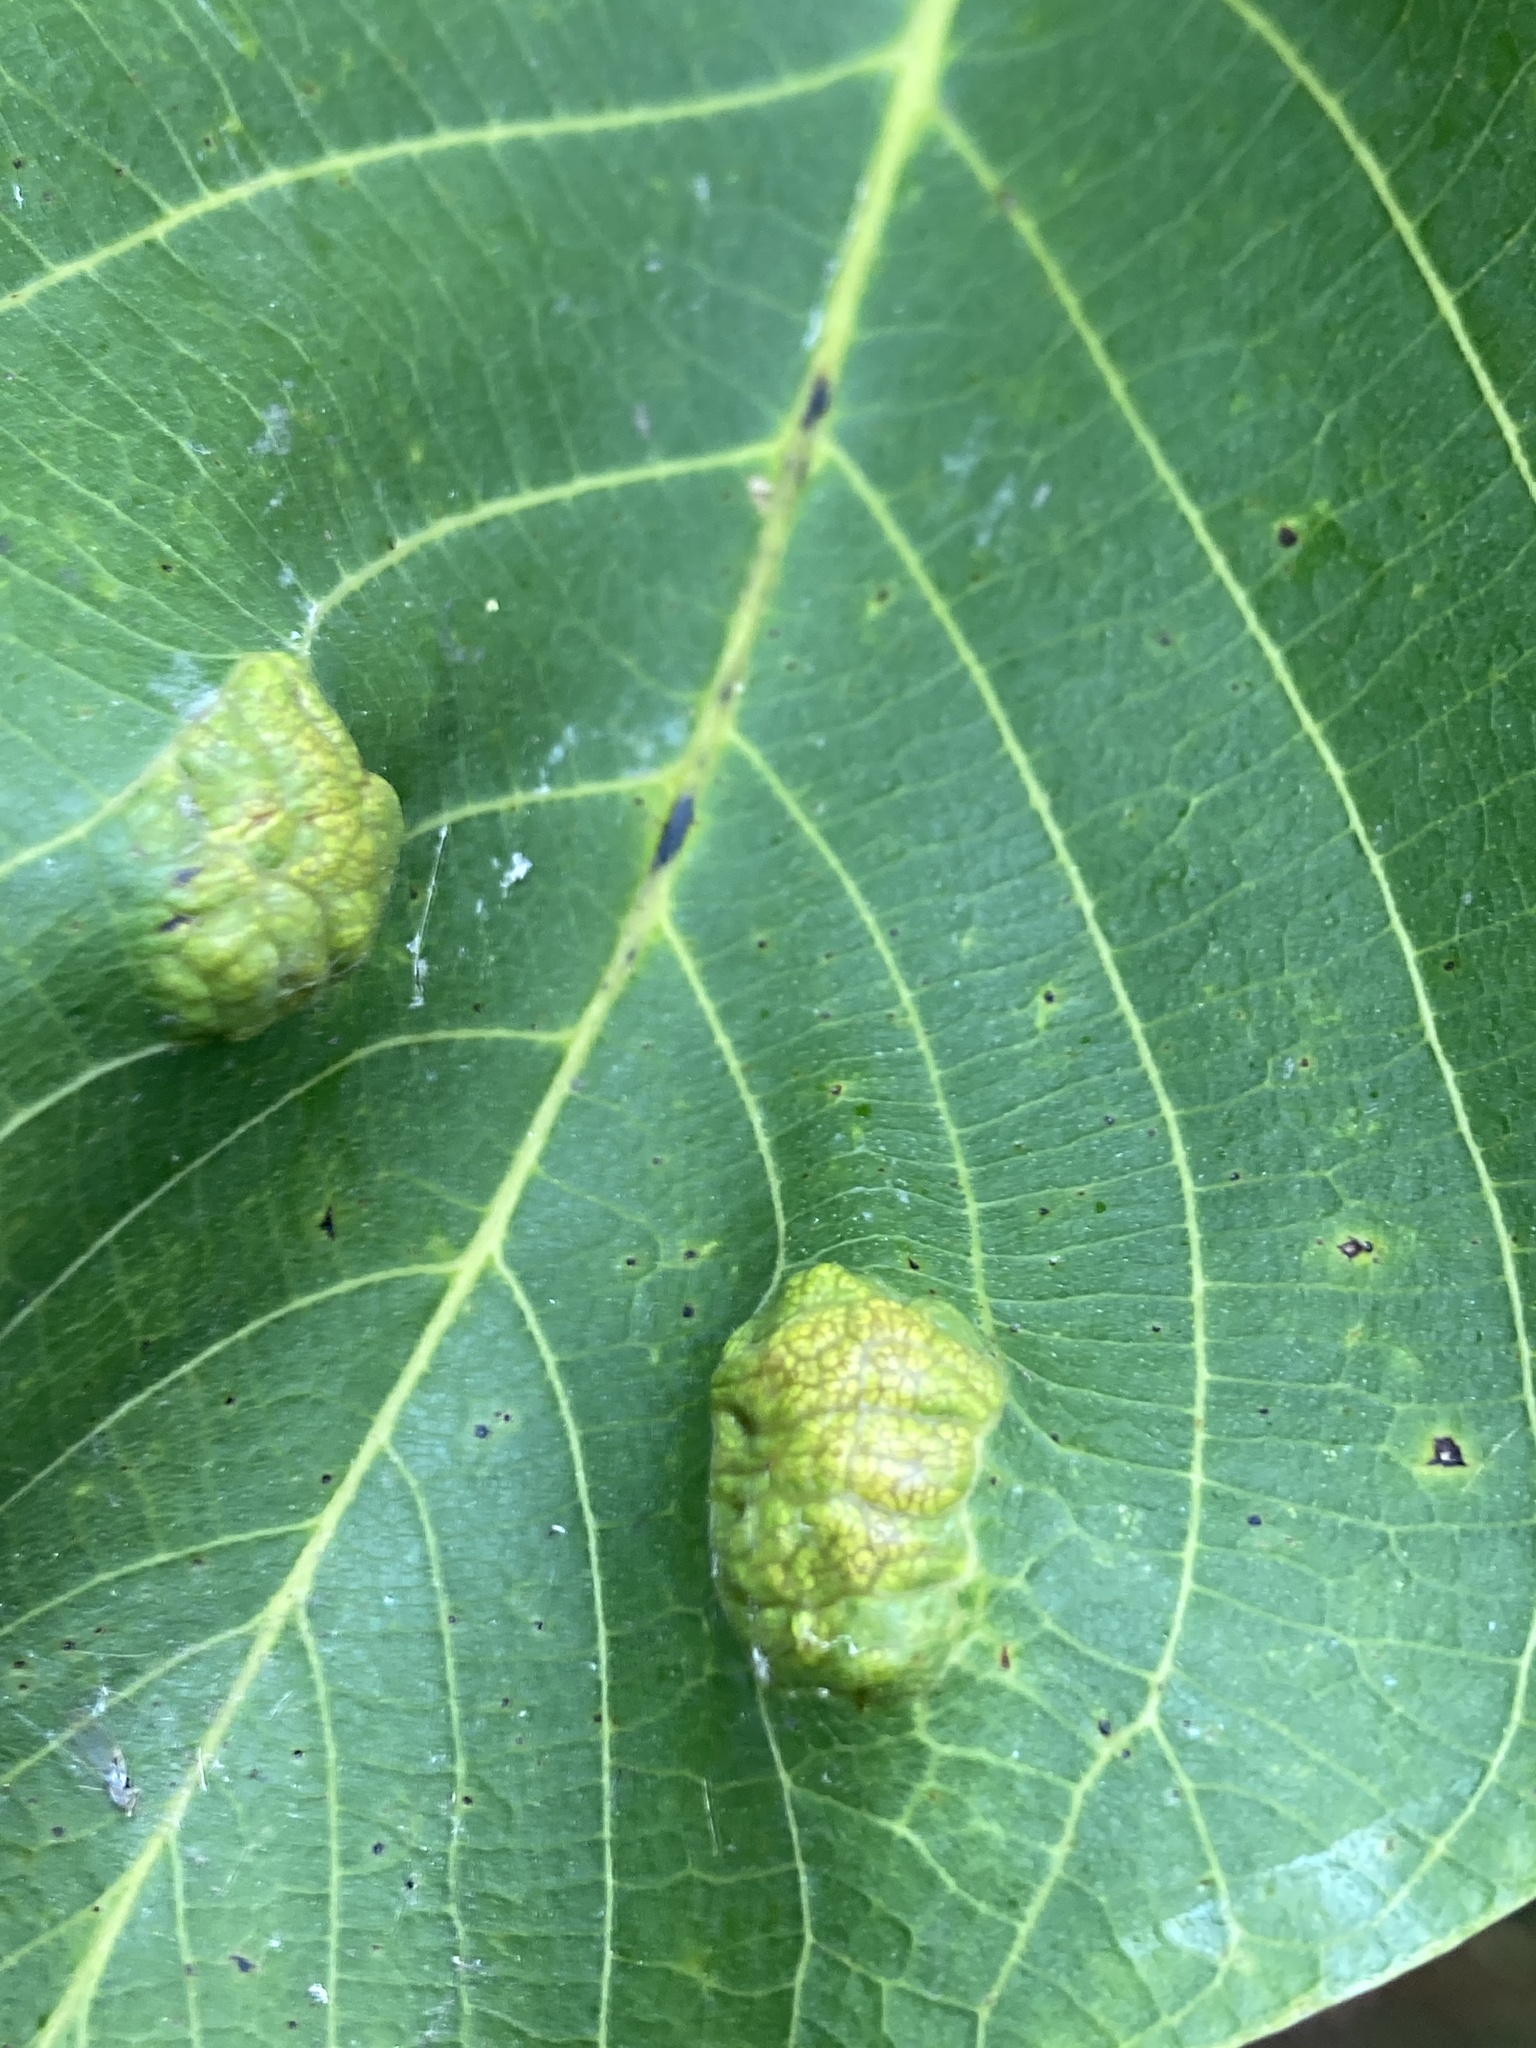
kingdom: Animalia
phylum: Arthropoda
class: Arachnida
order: Trombidiformes
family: Eriophyidae
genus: Aceria
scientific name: Aceria erinea
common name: Persian walnut erineum mite
